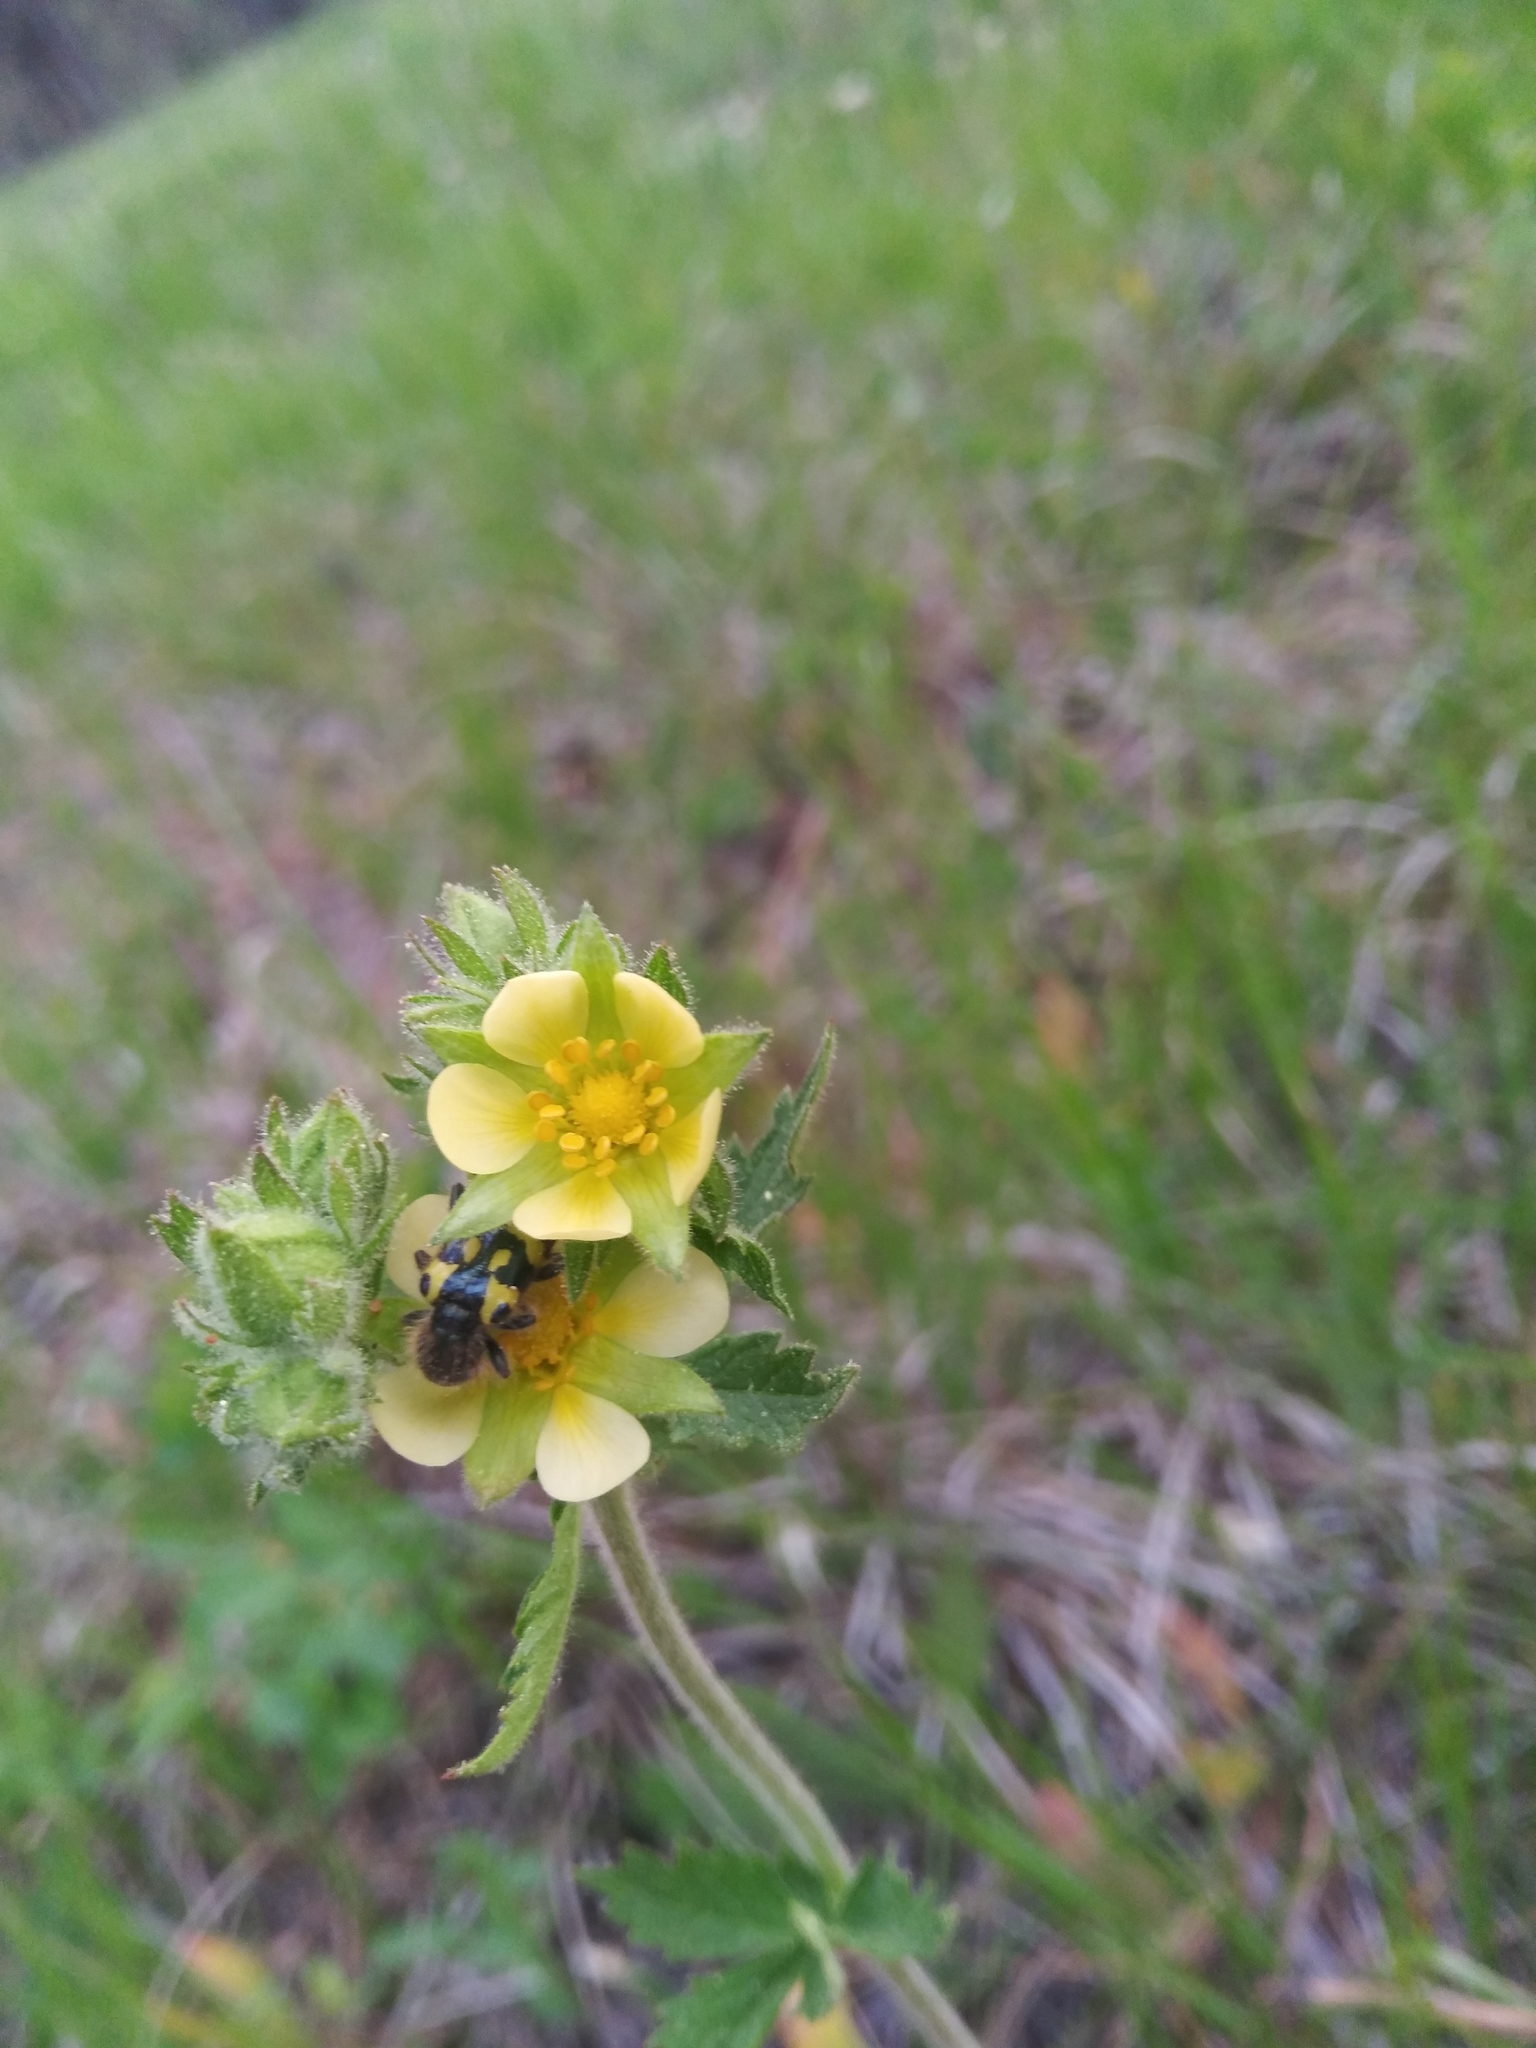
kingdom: Animalia
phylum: Arthropoda
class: Insecta
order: Coleoptera
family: Cleridae
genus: Trichodes
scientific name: Trichodes ornatus
